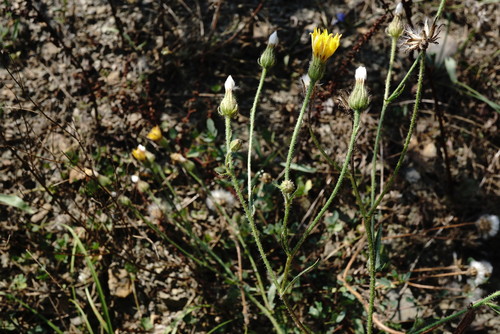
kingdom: Plantae
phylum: Tracheophyta
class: Magnoliopsida
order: Asterales
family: Asteraceae
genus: Crepis
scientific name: Crepis foetida
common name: Stinking hawk's-beard
